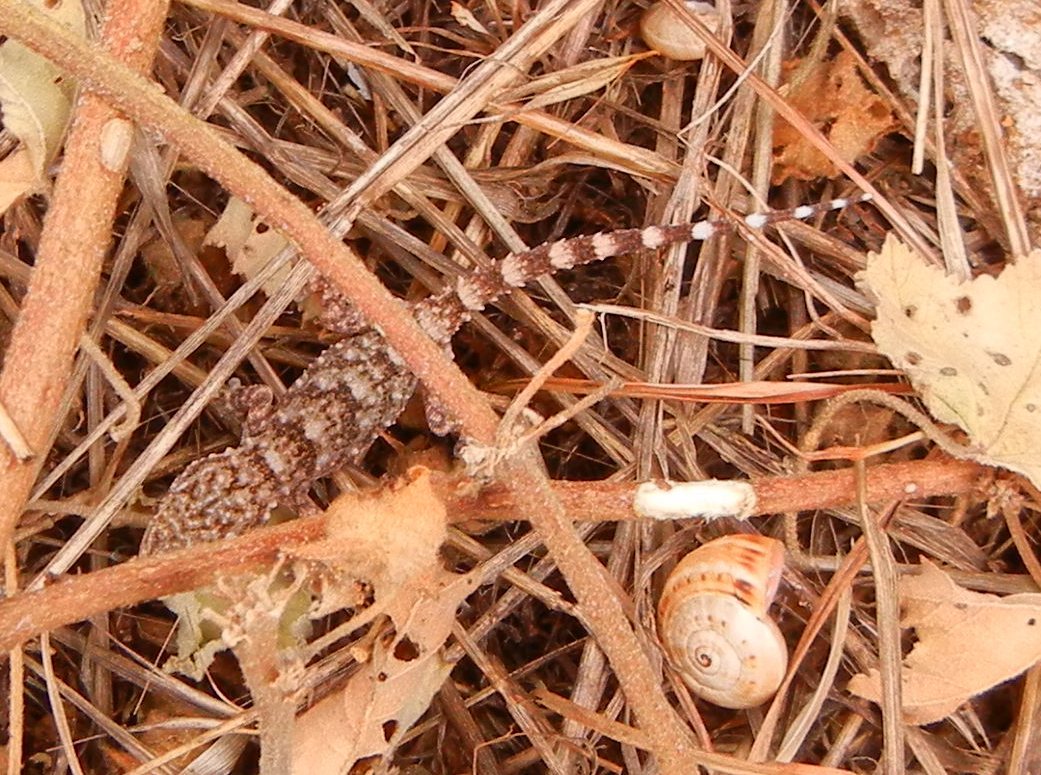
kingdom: Animalia
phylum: Chordata
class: Squamata
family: Phyllodactylidae
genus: Tarentola
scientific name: Tarentola mauritanica
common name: Moorish gecko
